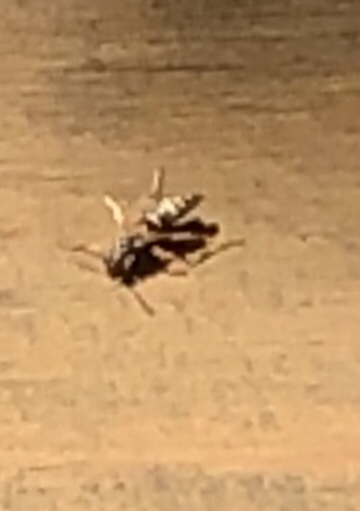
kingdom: Animalia
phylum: Arthropoda
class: Insecta
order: Hymenoptera
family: Eumenidae
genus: Polistes
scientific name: Polistes
